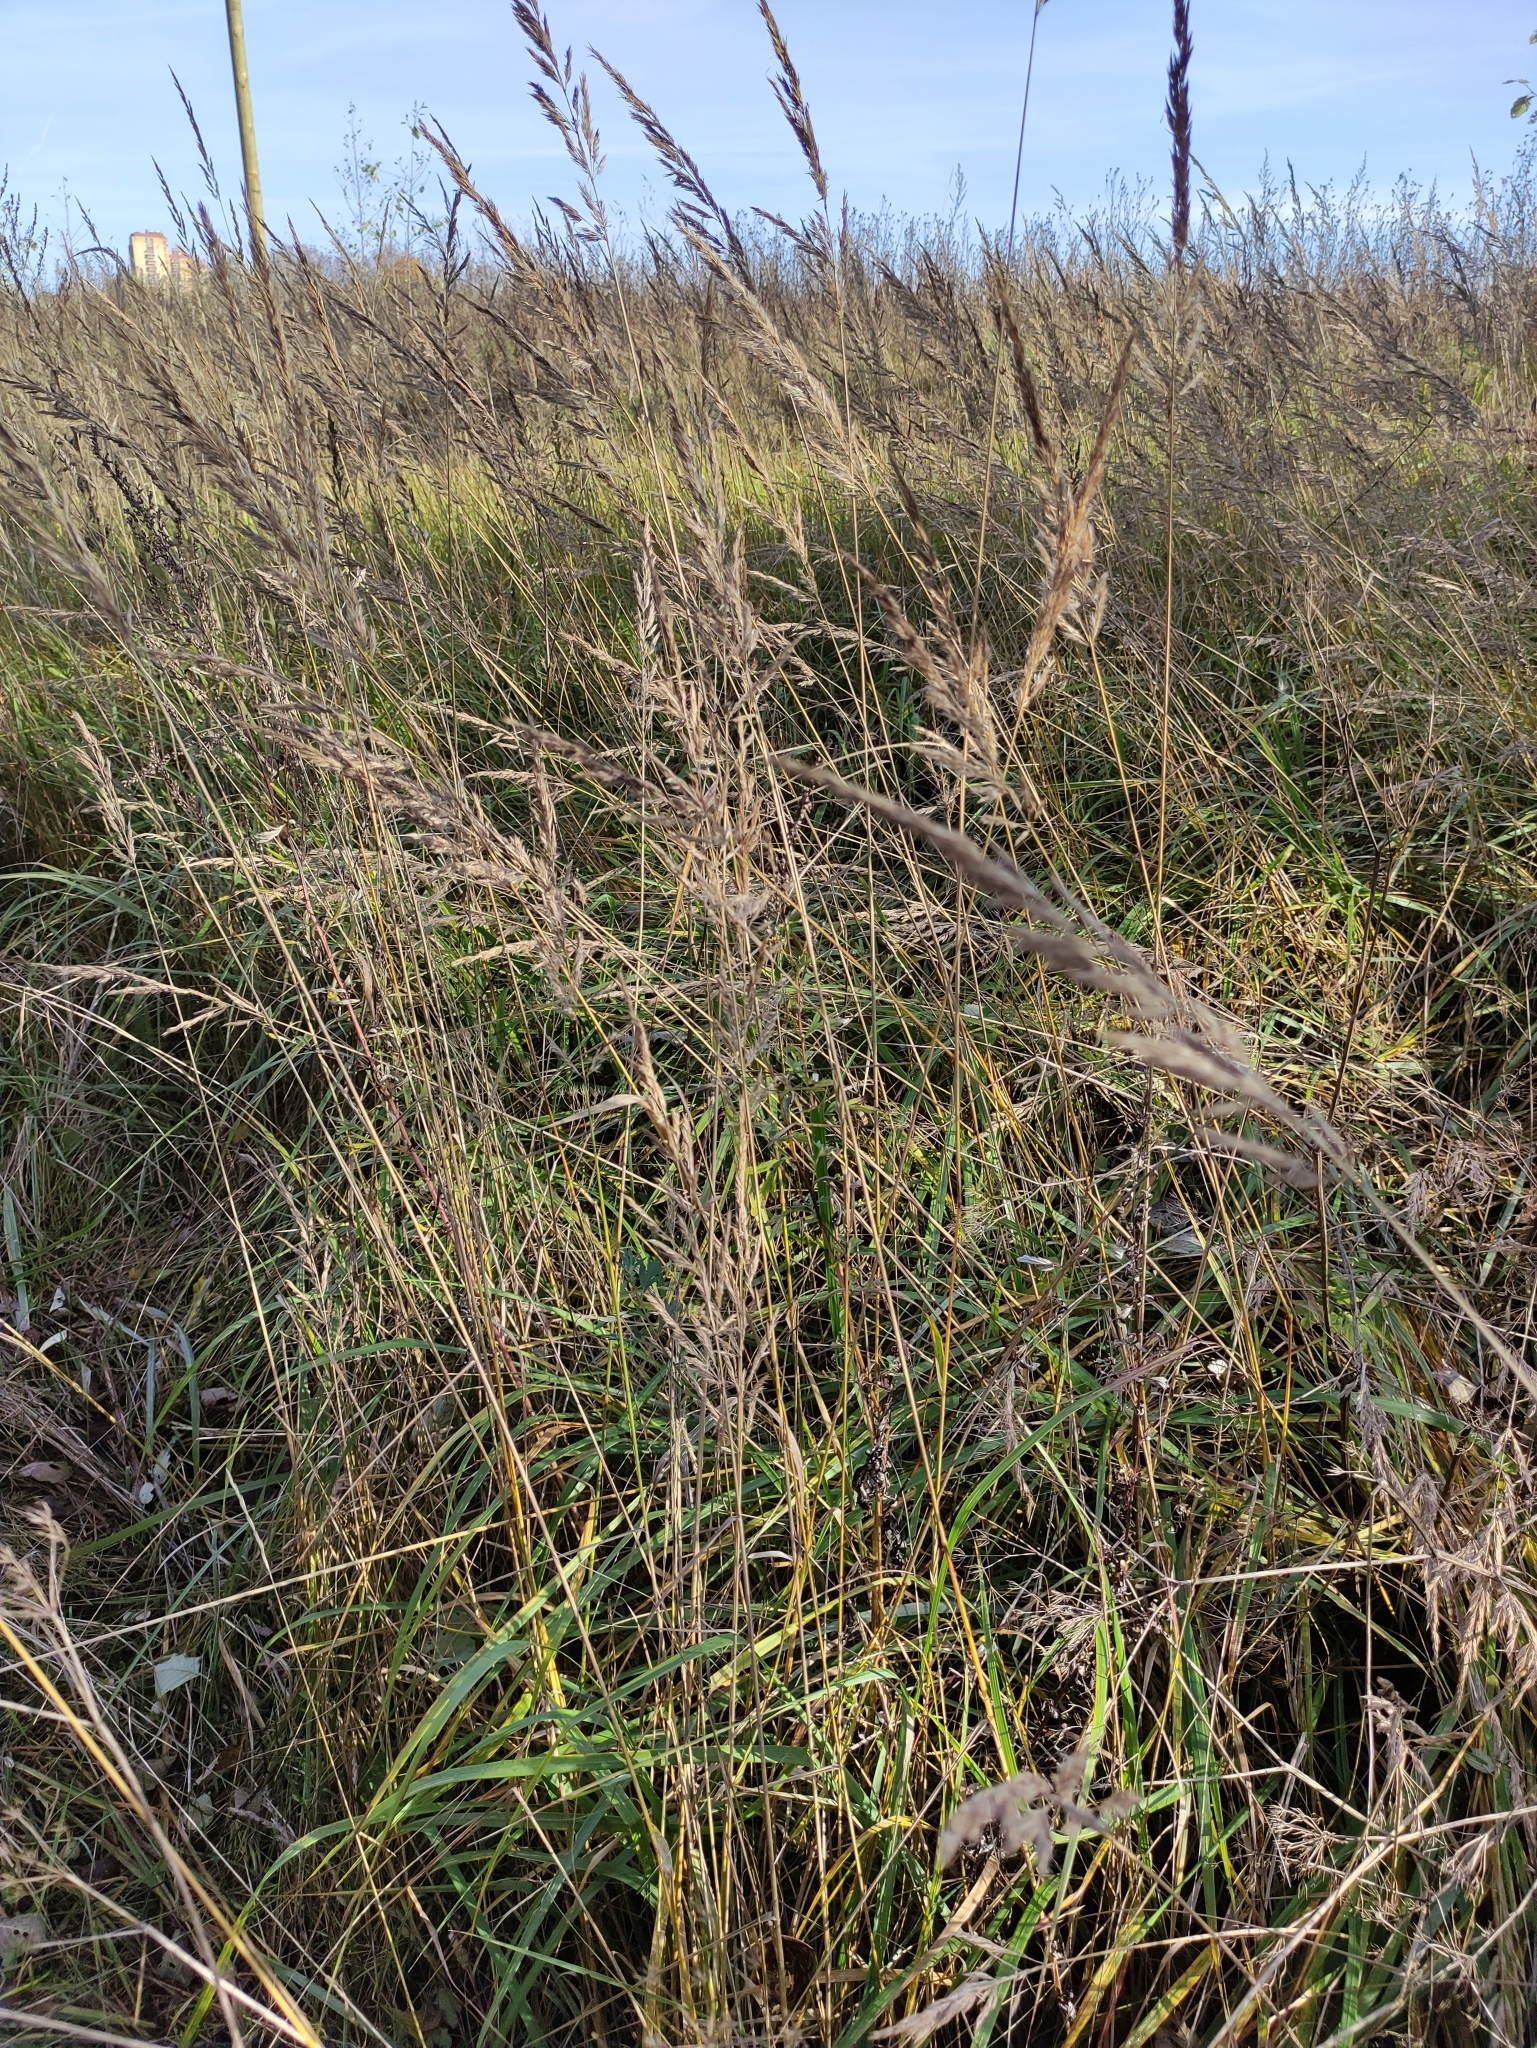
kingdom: Plantae
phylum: Tracheophyta
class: Liliopsida
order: Poales
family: Poaceae
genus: Calamagrostis
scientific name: Calamagrostis epigejos
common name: Wood small-reed
